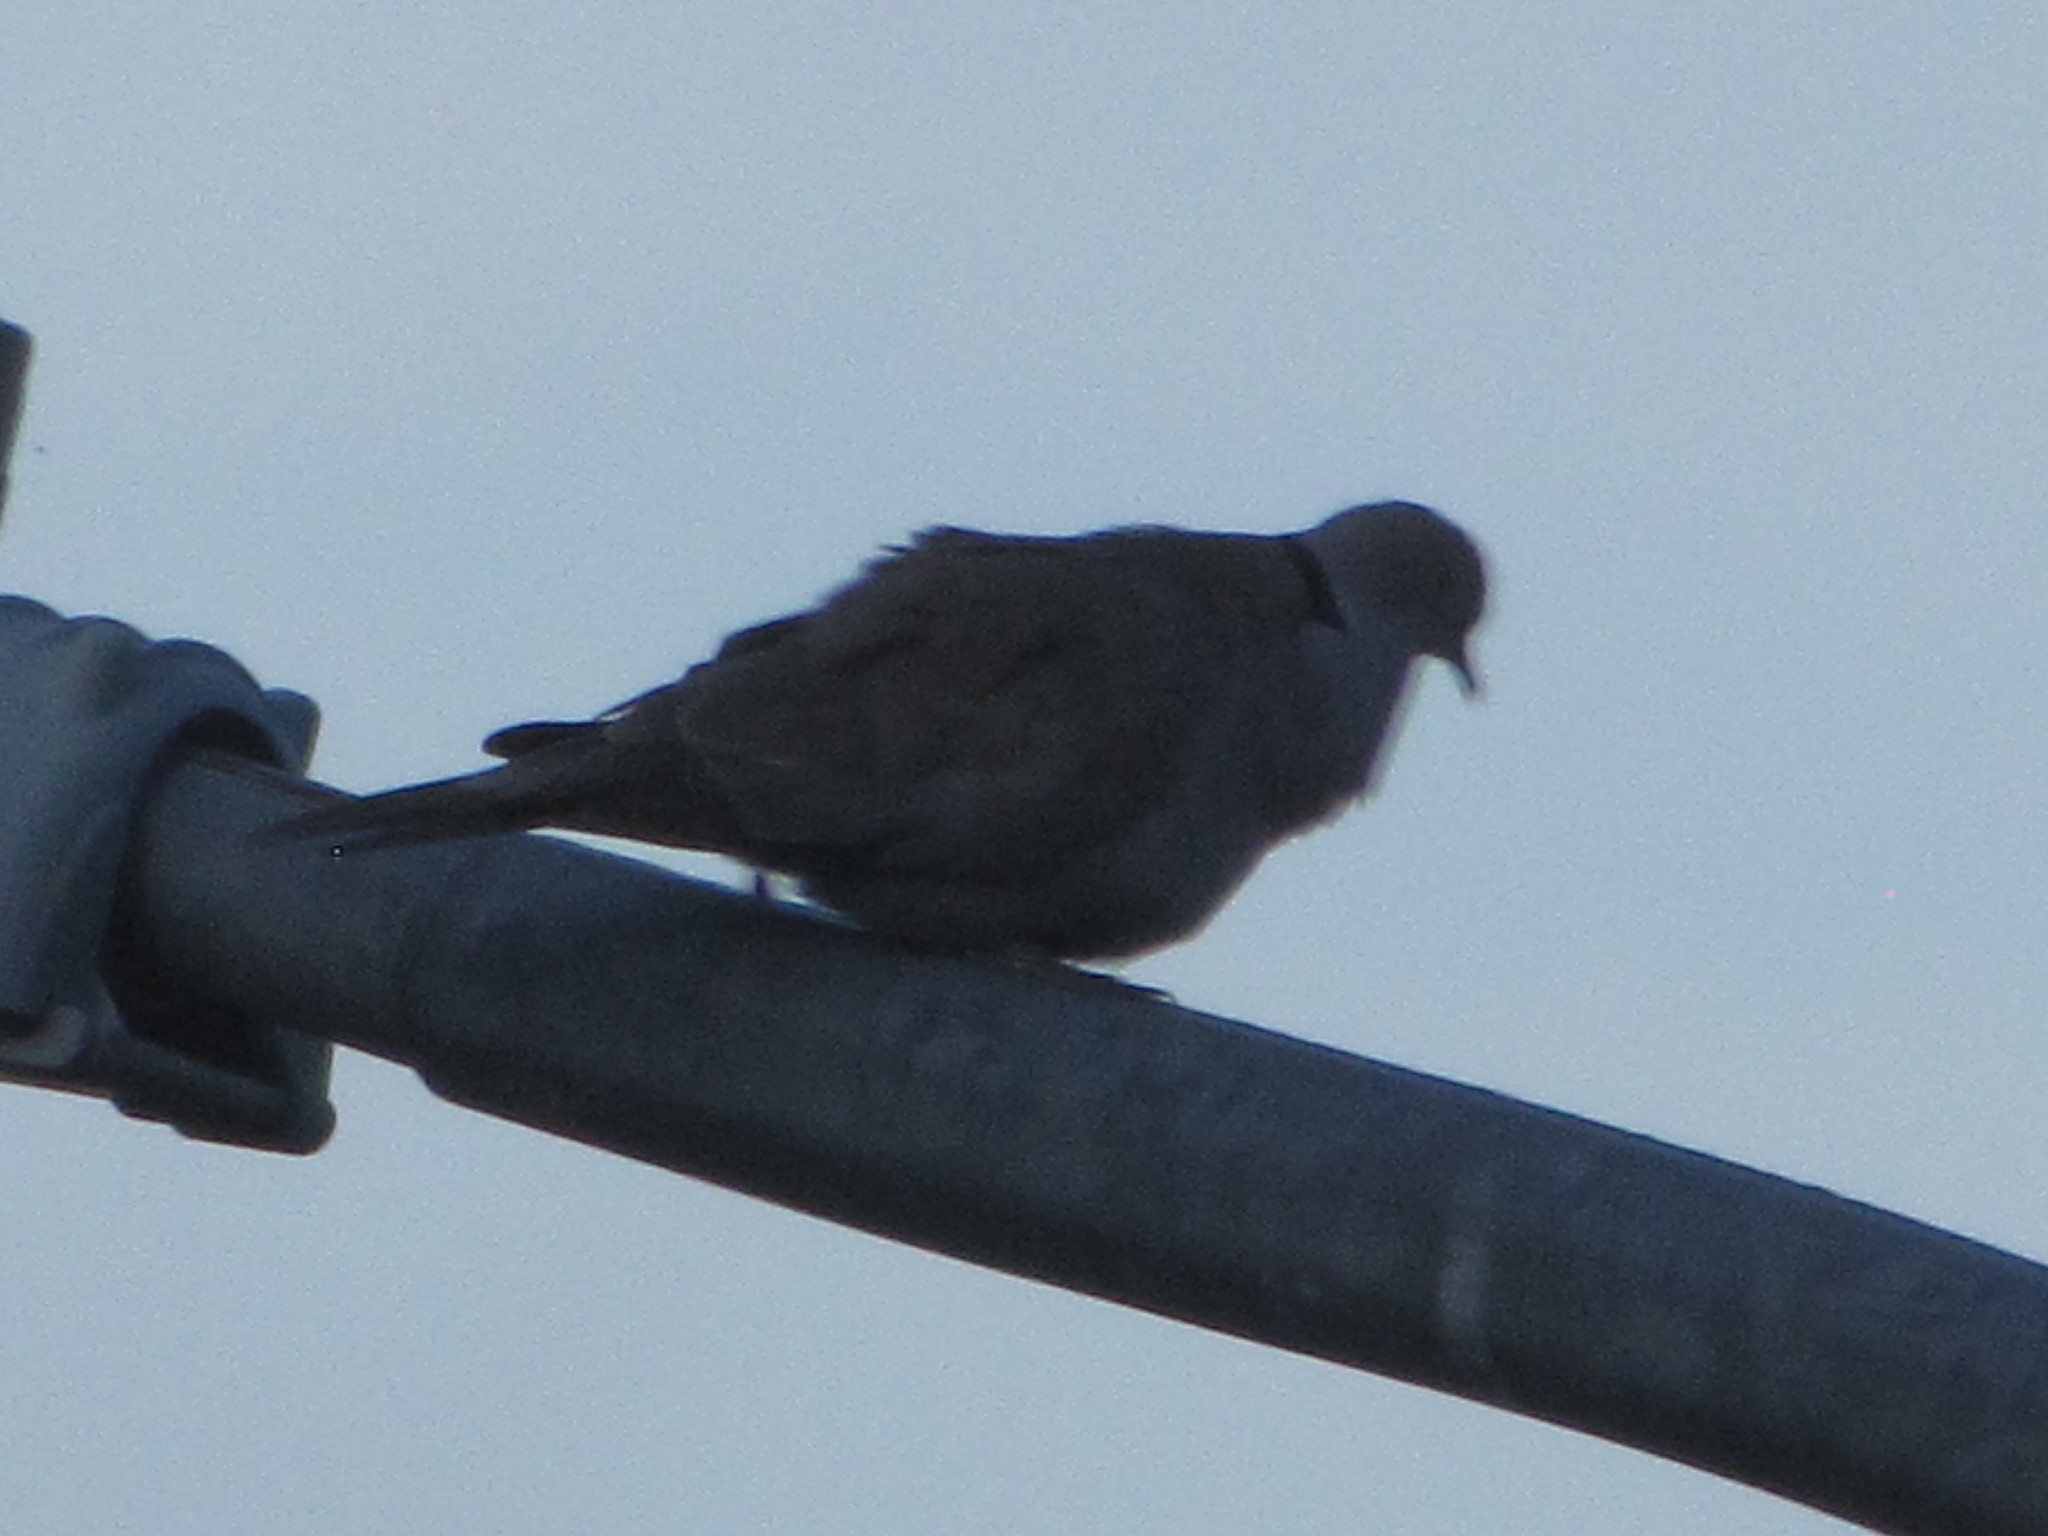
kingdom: Animalia
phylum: Chordata
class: Aves
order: Columbiformes
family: Columbidae
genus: Streptopelia
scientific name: Streptopelia decaocto
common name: Eurasian collared dove
